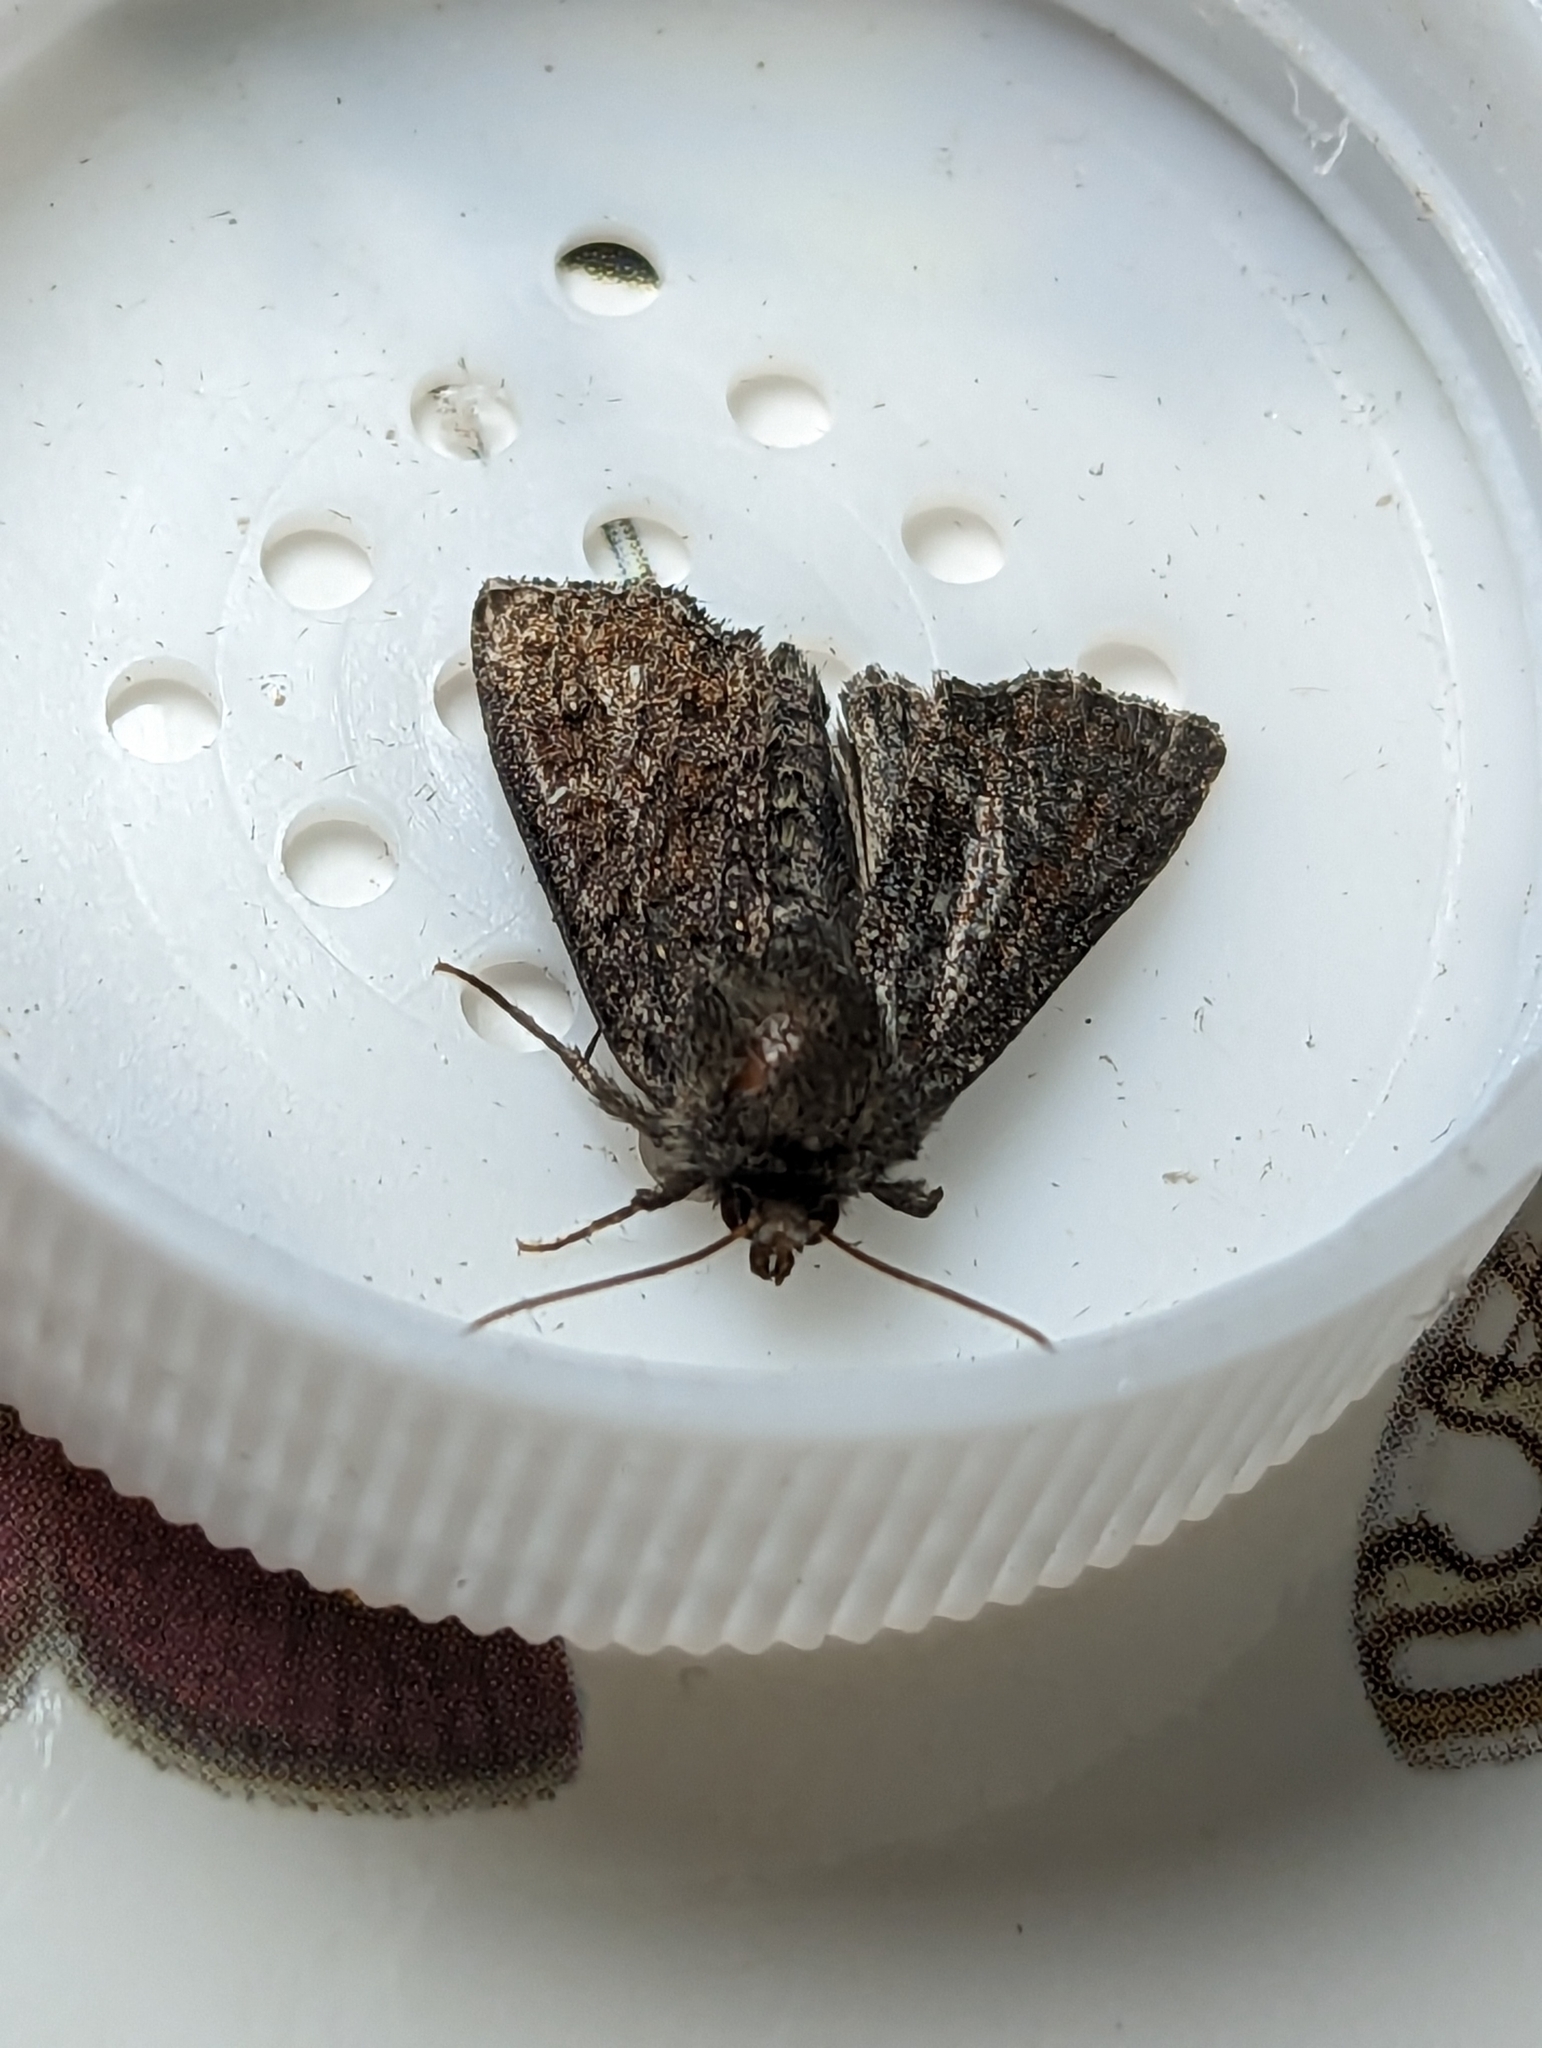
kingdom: Animalia
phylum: Arthropoda
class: Insecta
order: Lepidoptera
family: Noctuidae
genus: Oligia
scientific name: Oligia latruncula
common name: Tawny marbled minor
